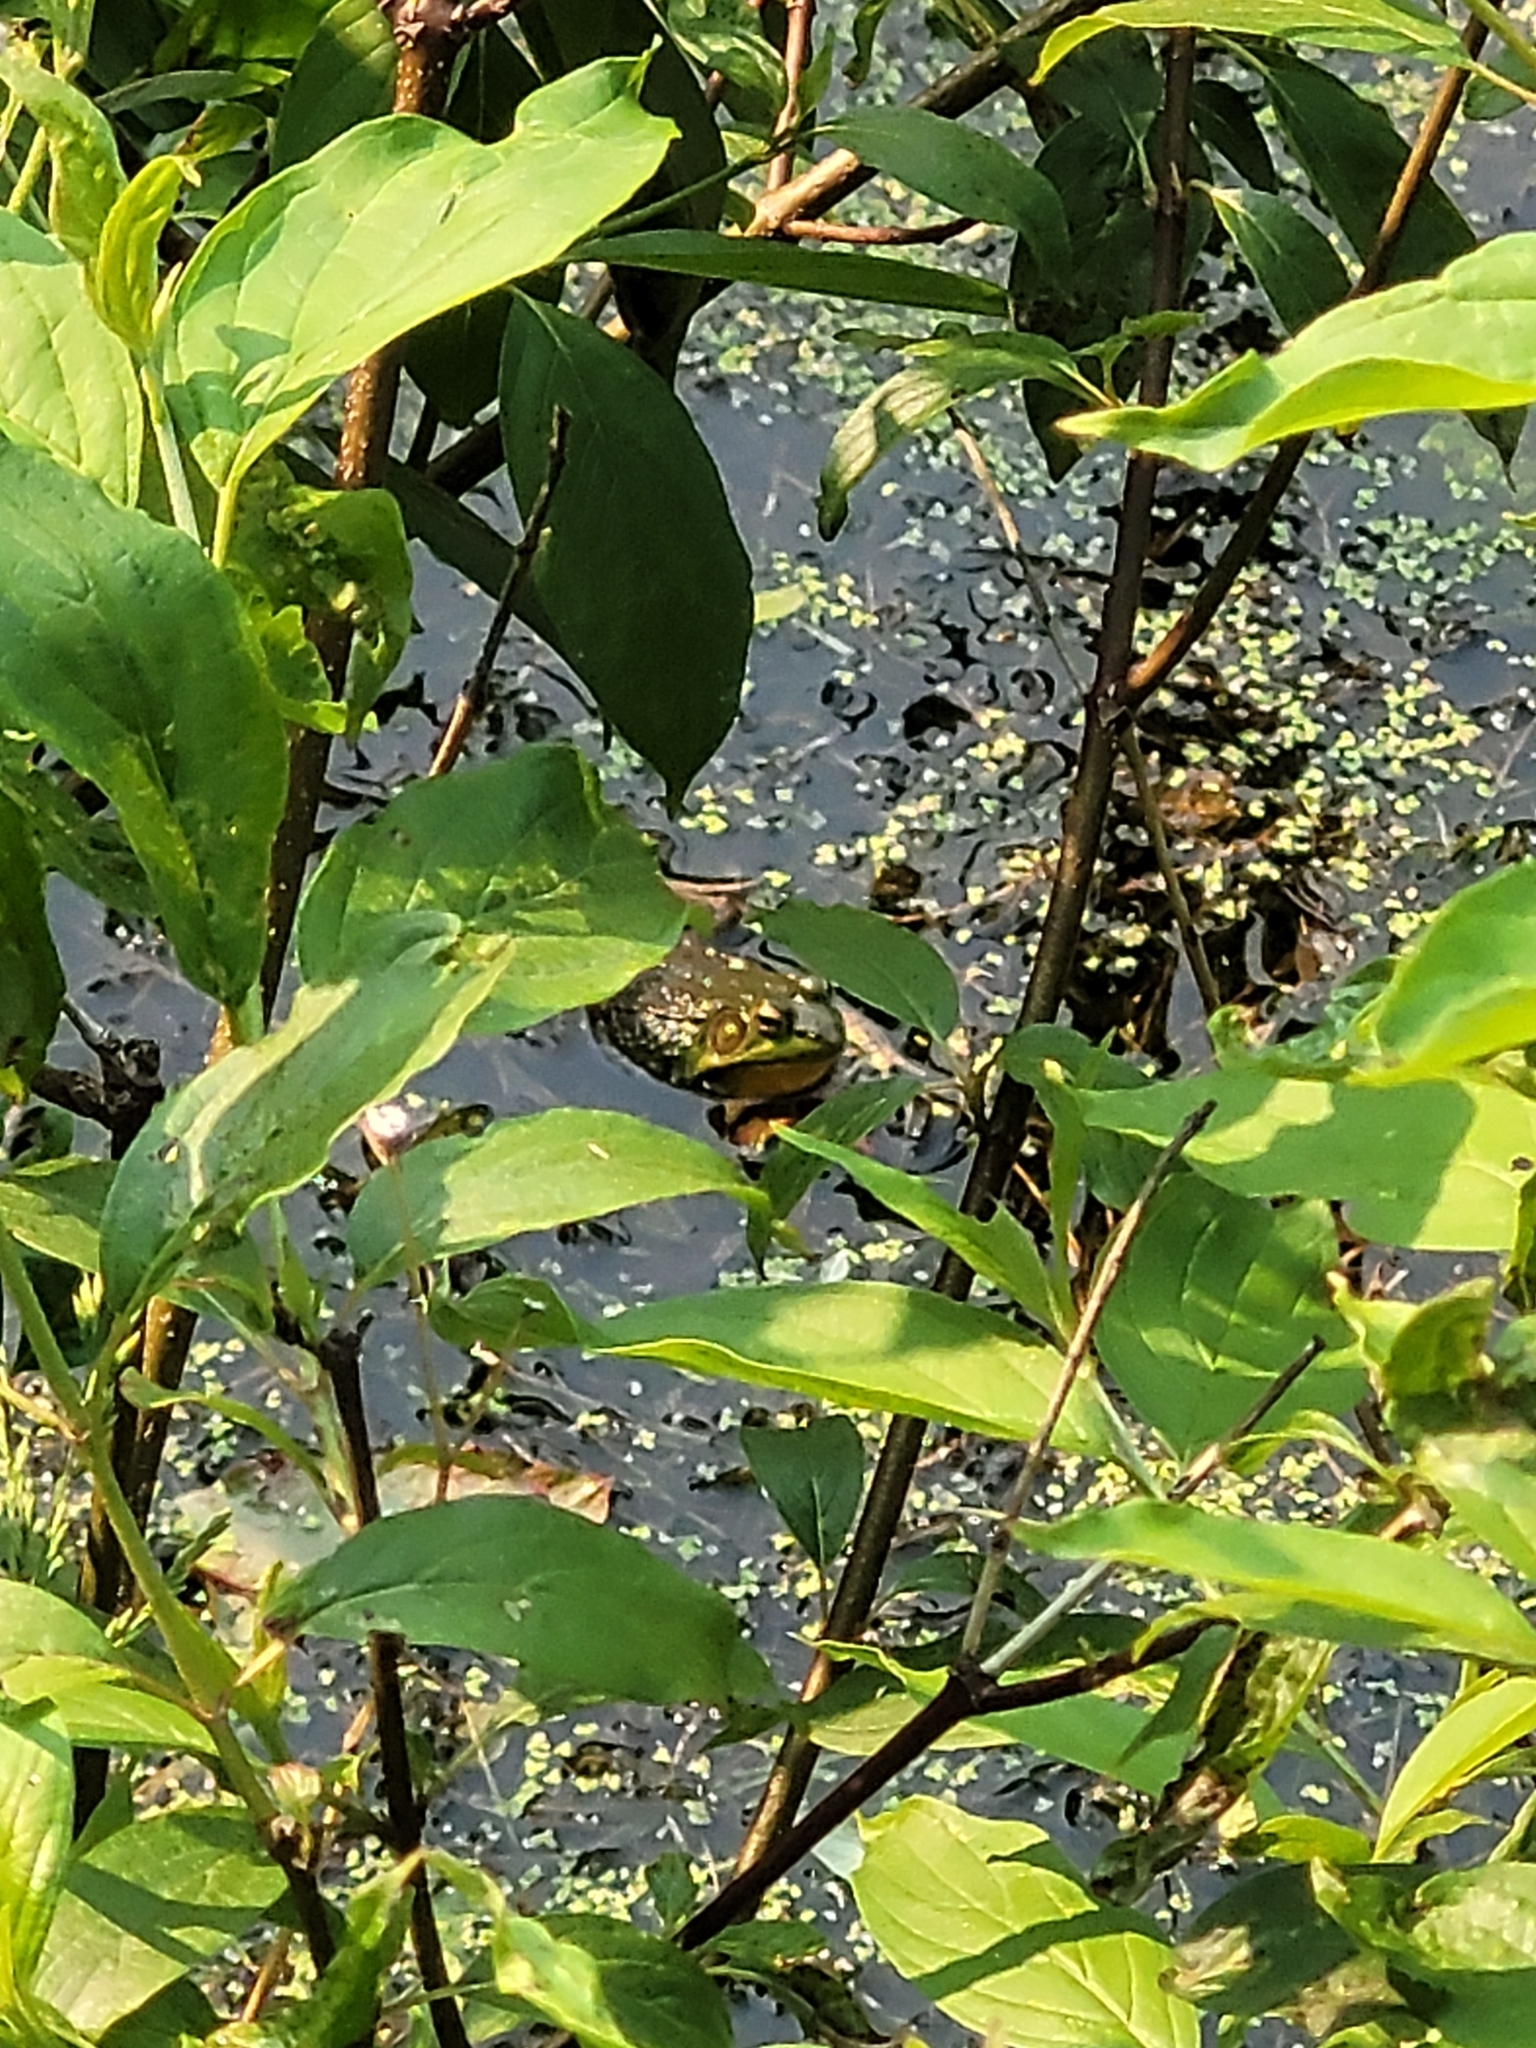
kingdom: Animalia
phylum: Chordata
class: Amphibia
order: Anura
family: Ranidae
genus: Lithobates
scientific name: Lithobates clamitans
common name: Green frog
